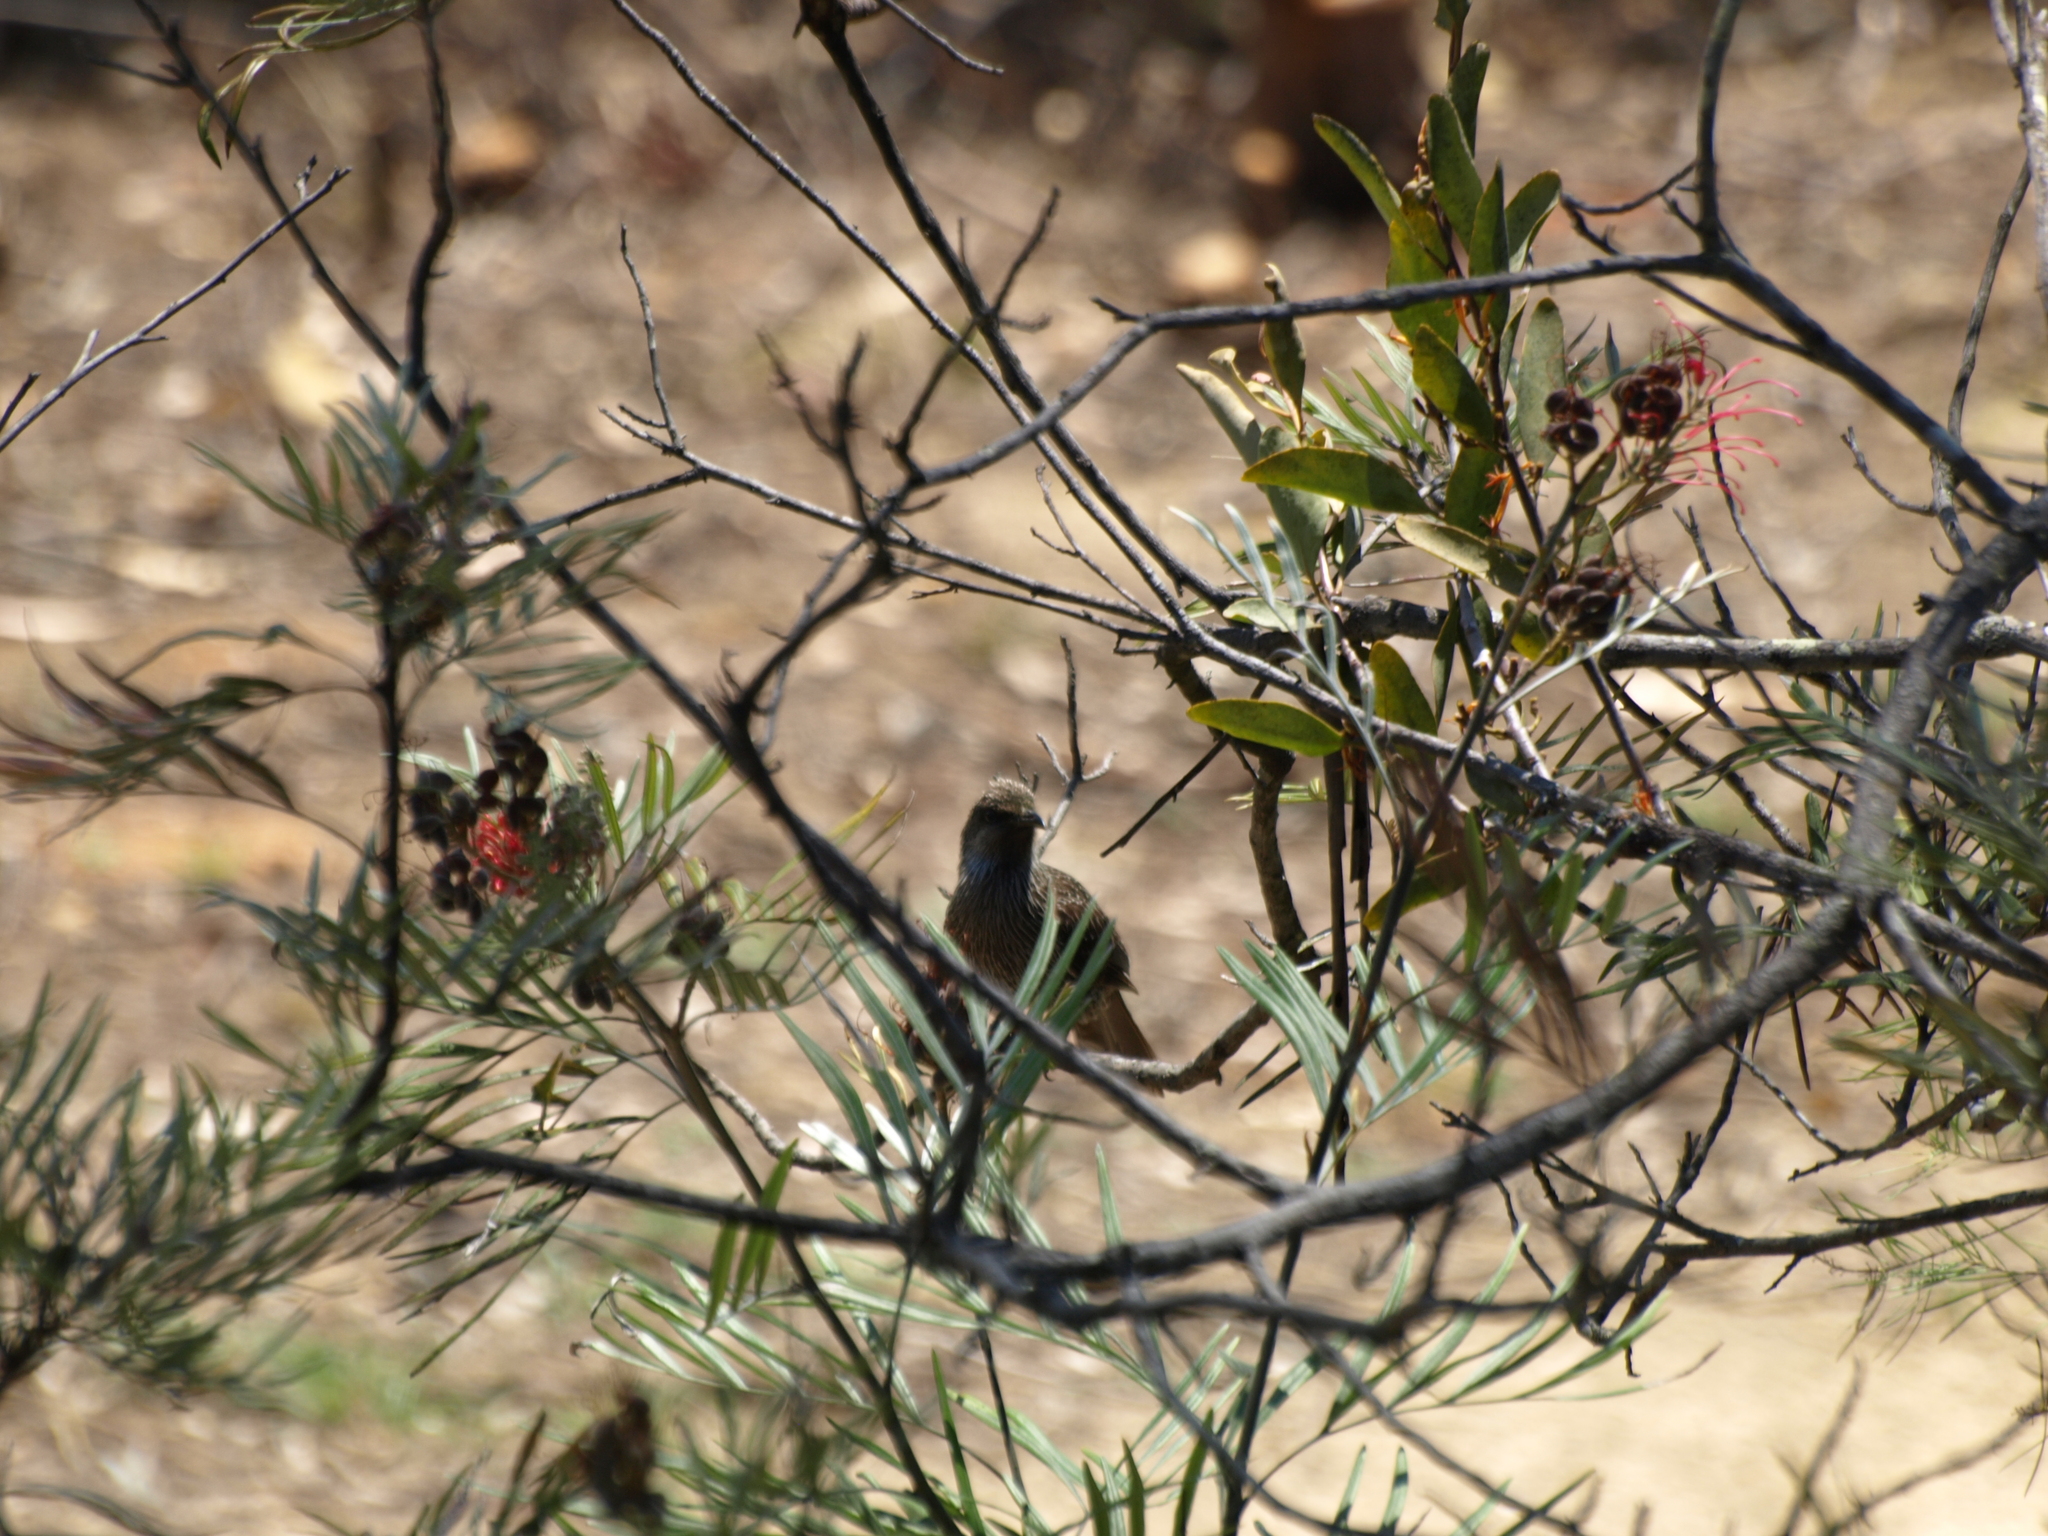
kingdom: Animalia
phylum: Chordata
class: Aves
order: Passeriformes
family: Meliphagidae
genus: Anthochaera
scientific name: Anthochaera chrysoptera
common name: Little wattlebird
